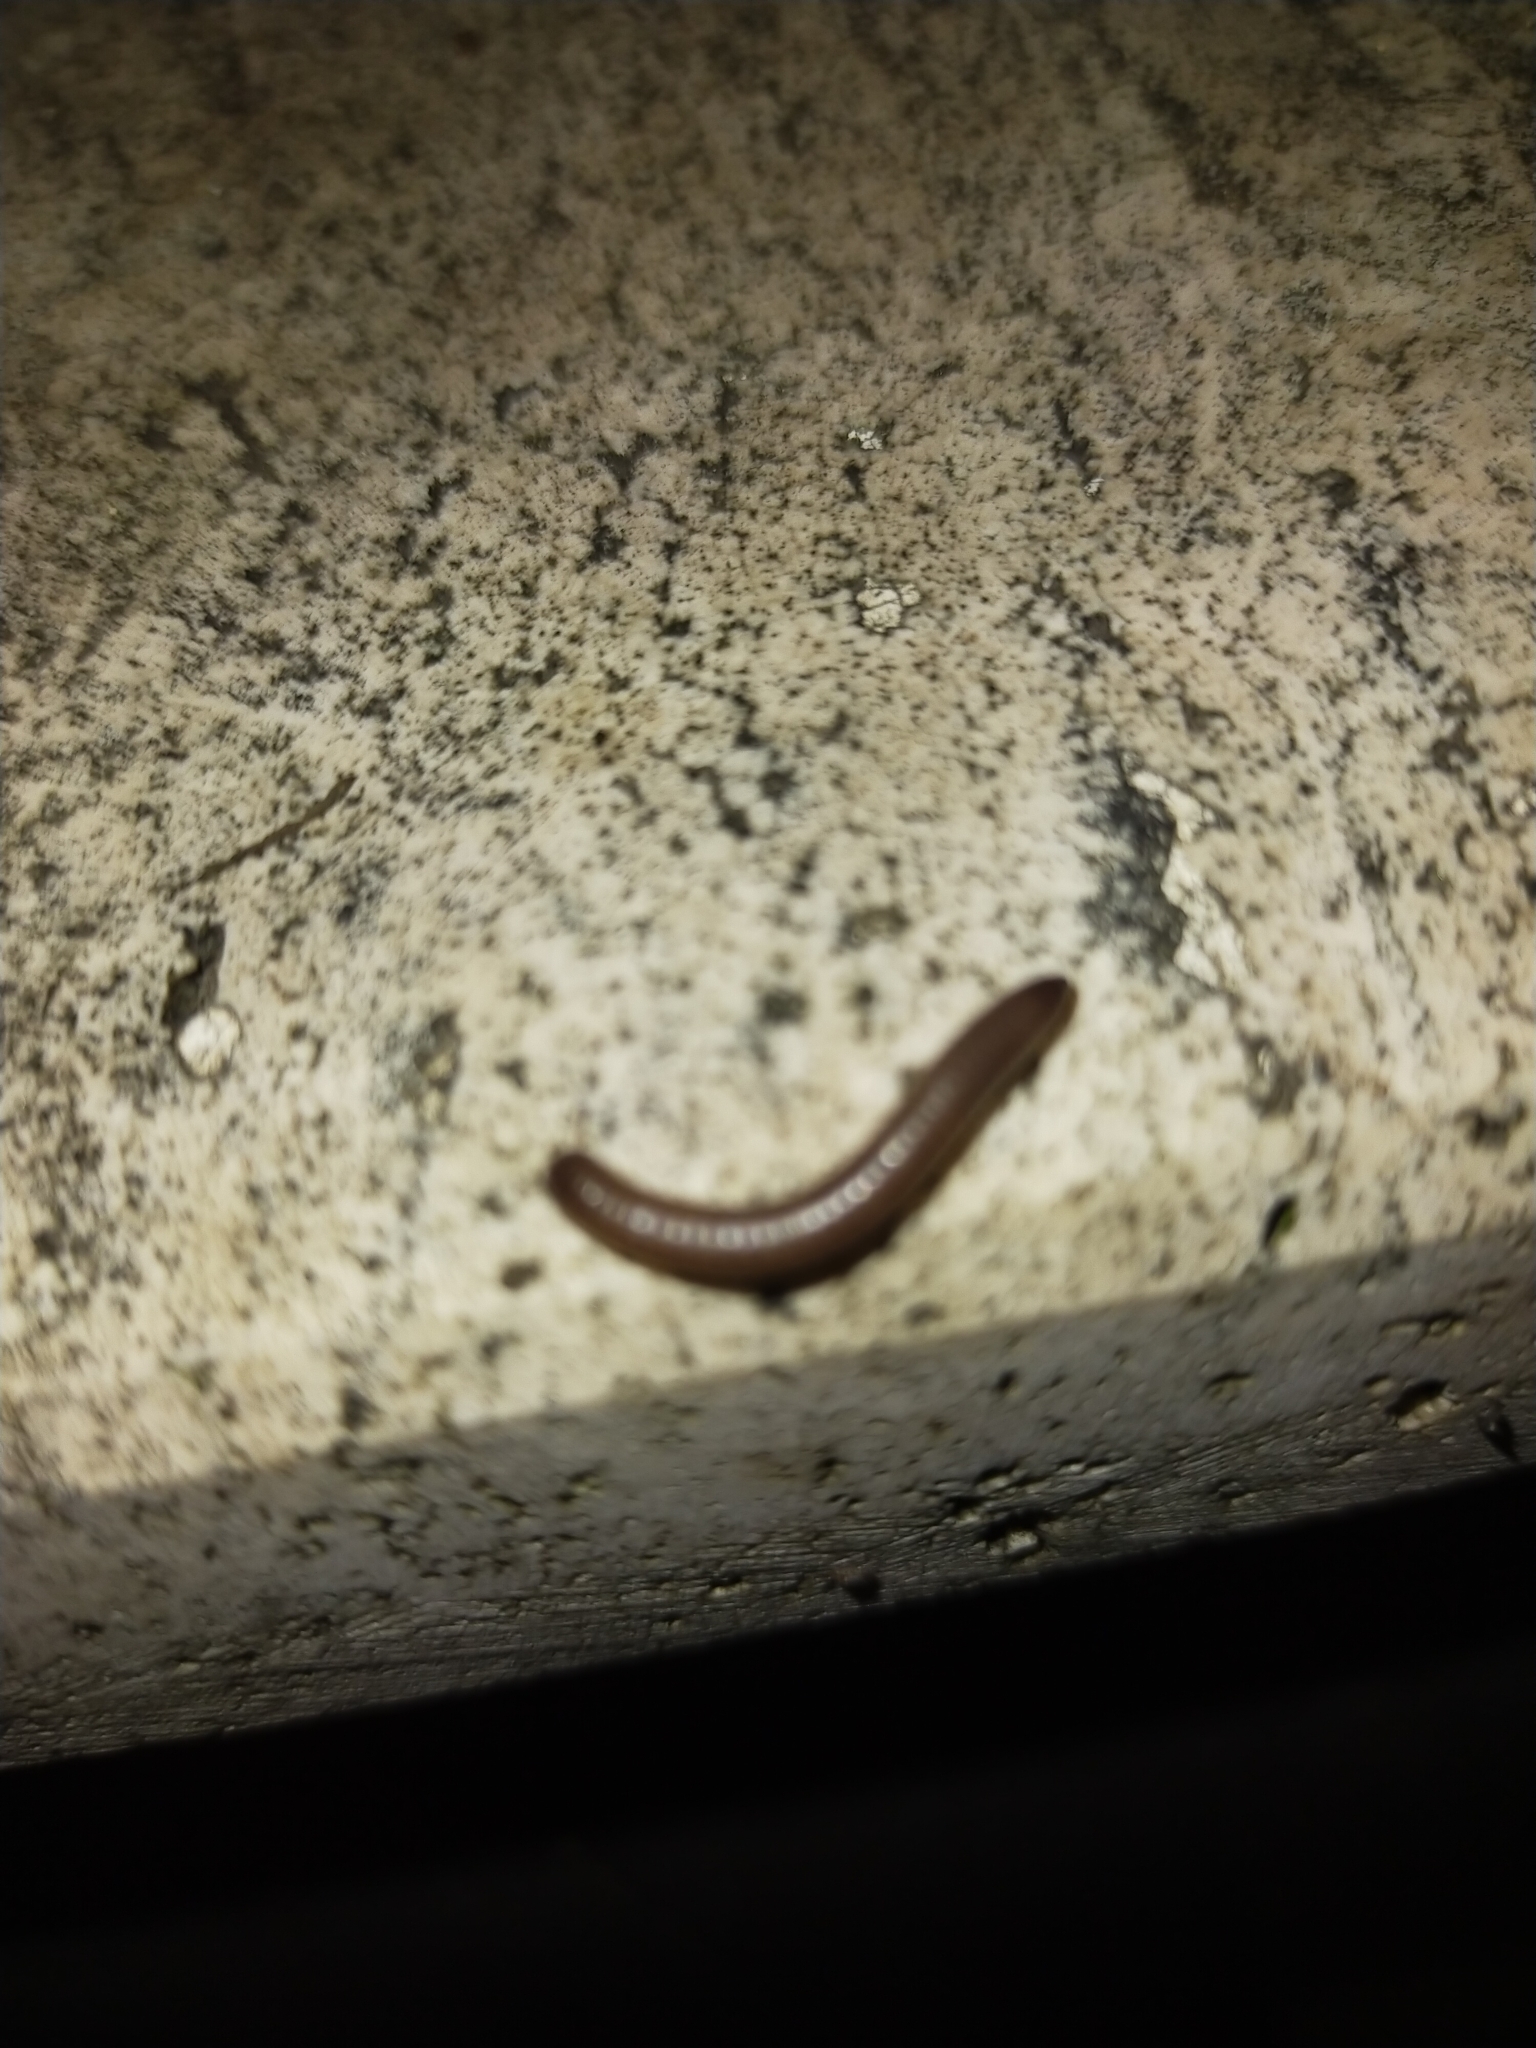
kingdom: Animalia
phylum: Arthropoda
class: Diplopoda
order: Julida
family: Julidae
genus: Pachyiulus
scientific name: Pachyiulus flavipes
